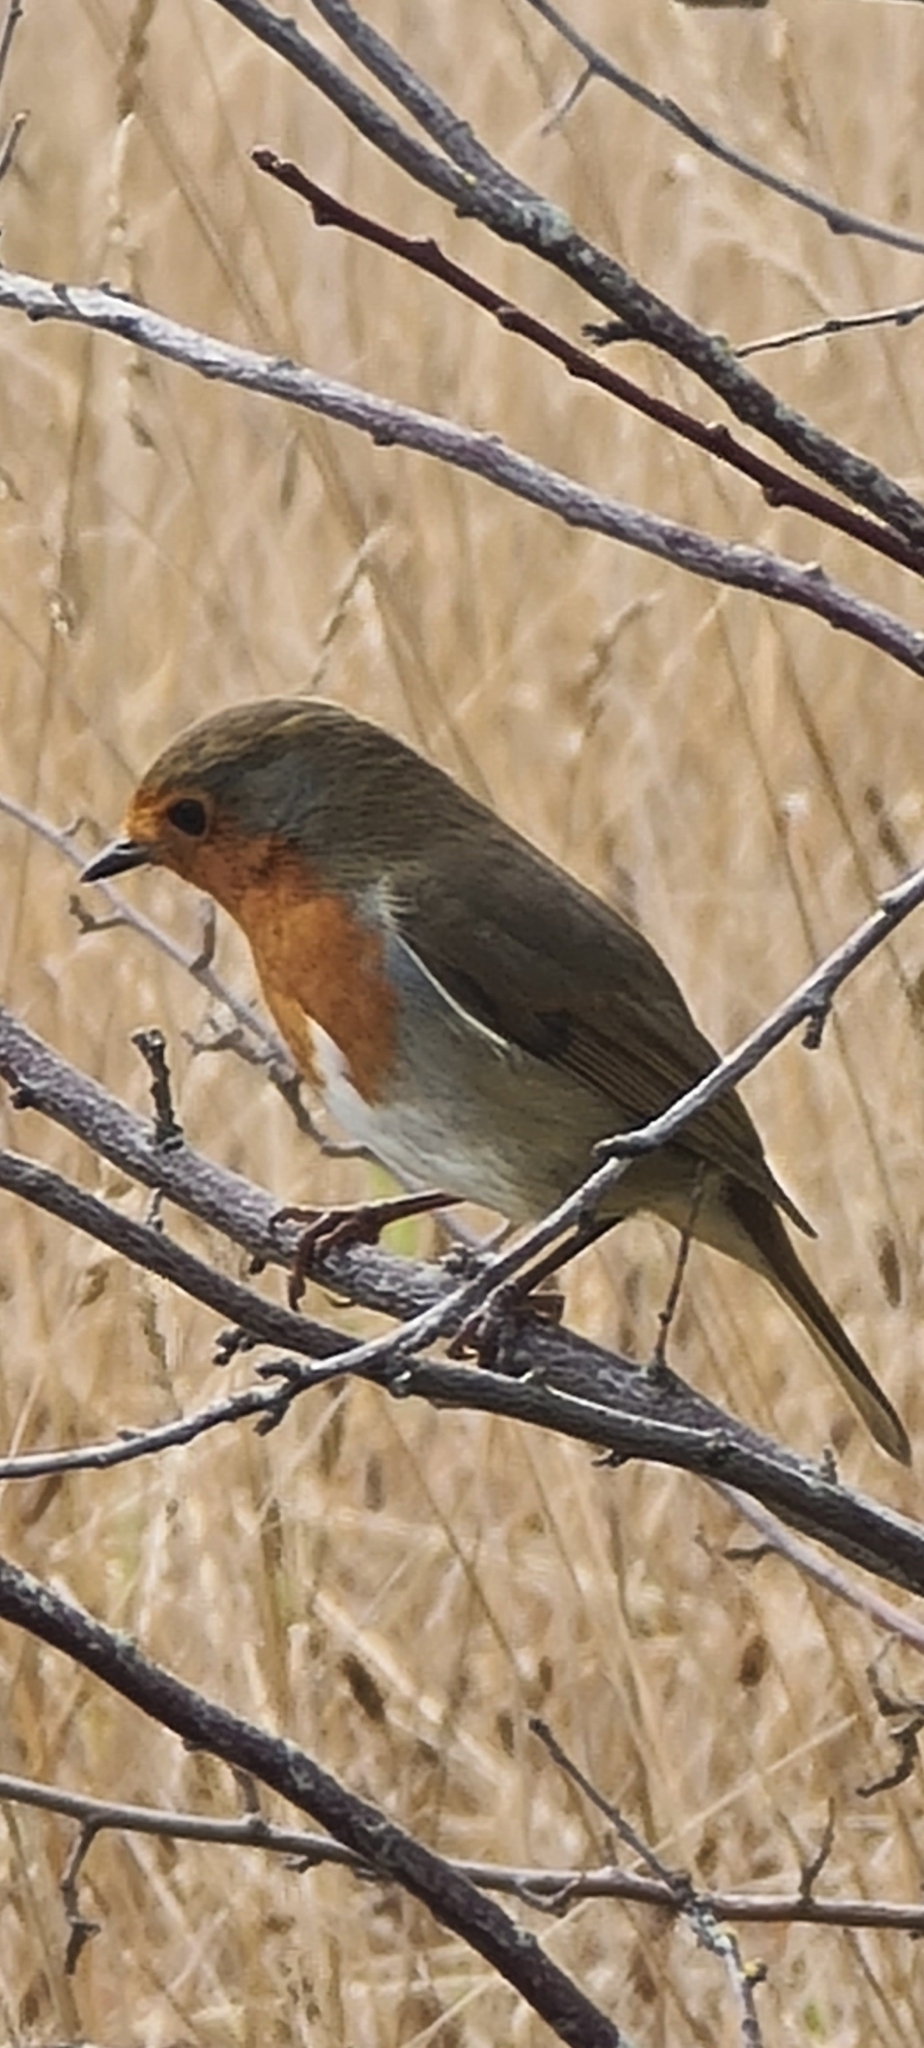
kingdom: Animalia
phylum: Chordata
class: Aves
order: Passeriformes
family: Muscicapidae
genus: Erithacus
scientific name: Erithacus rubecula
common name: European robin
